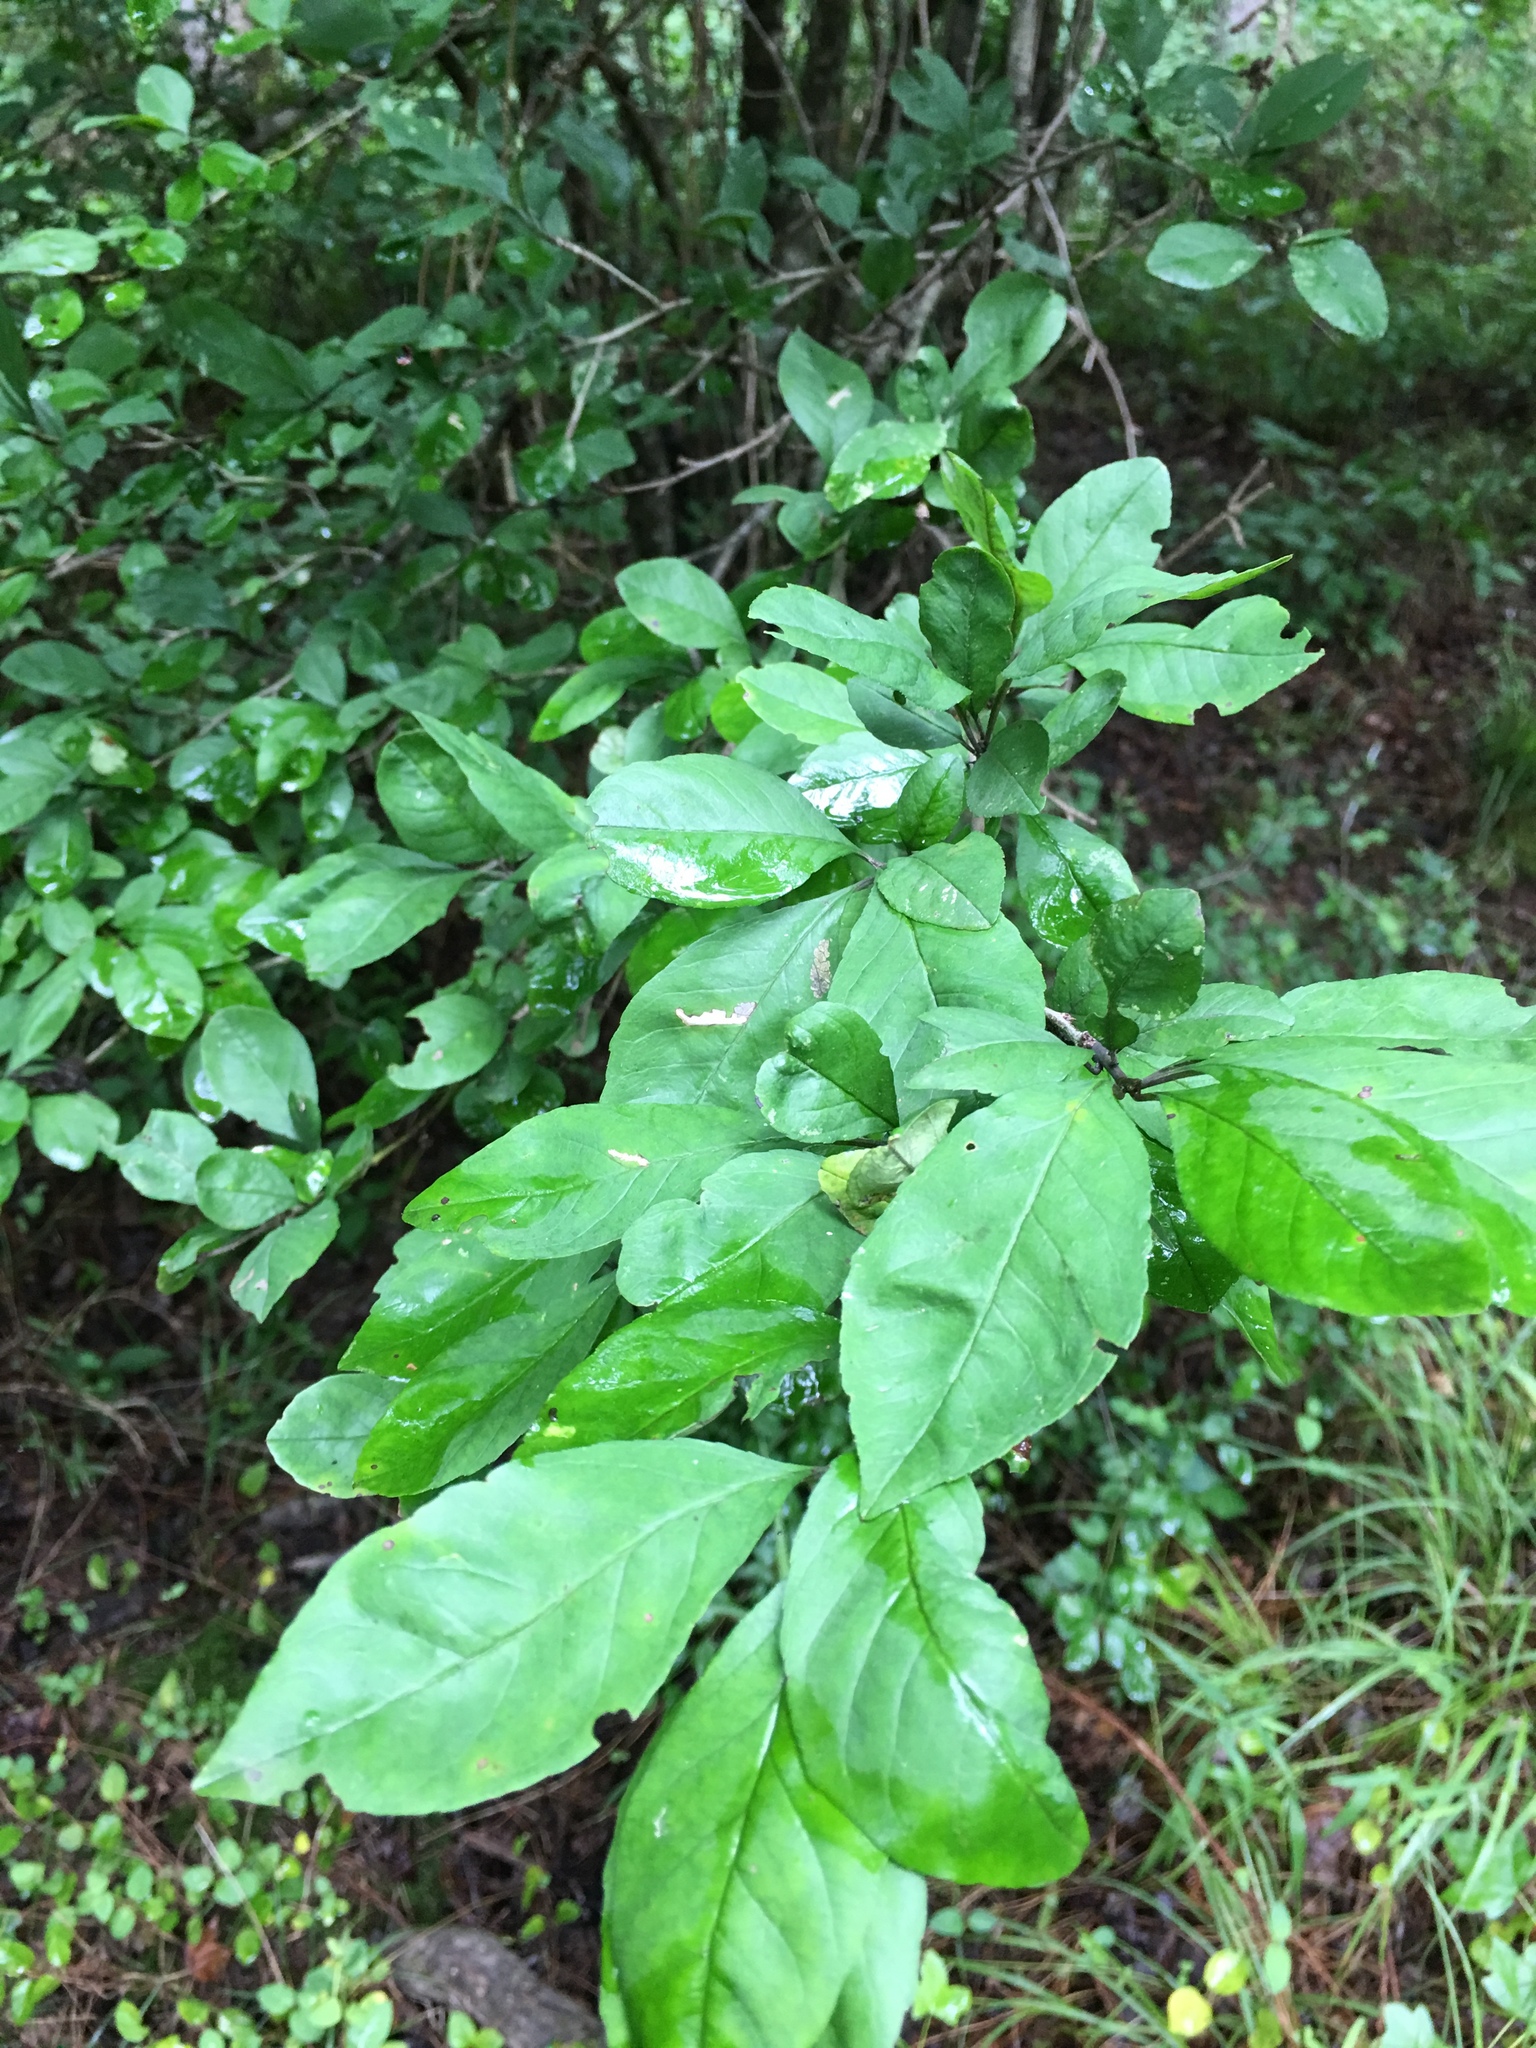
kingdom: Plantae
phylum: Tracheophyta
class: Magnoliopsida
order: Aquifoliales
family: Aquifoliaceae
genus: Ilex
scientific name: Ilex decidua
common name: Possum-haw
